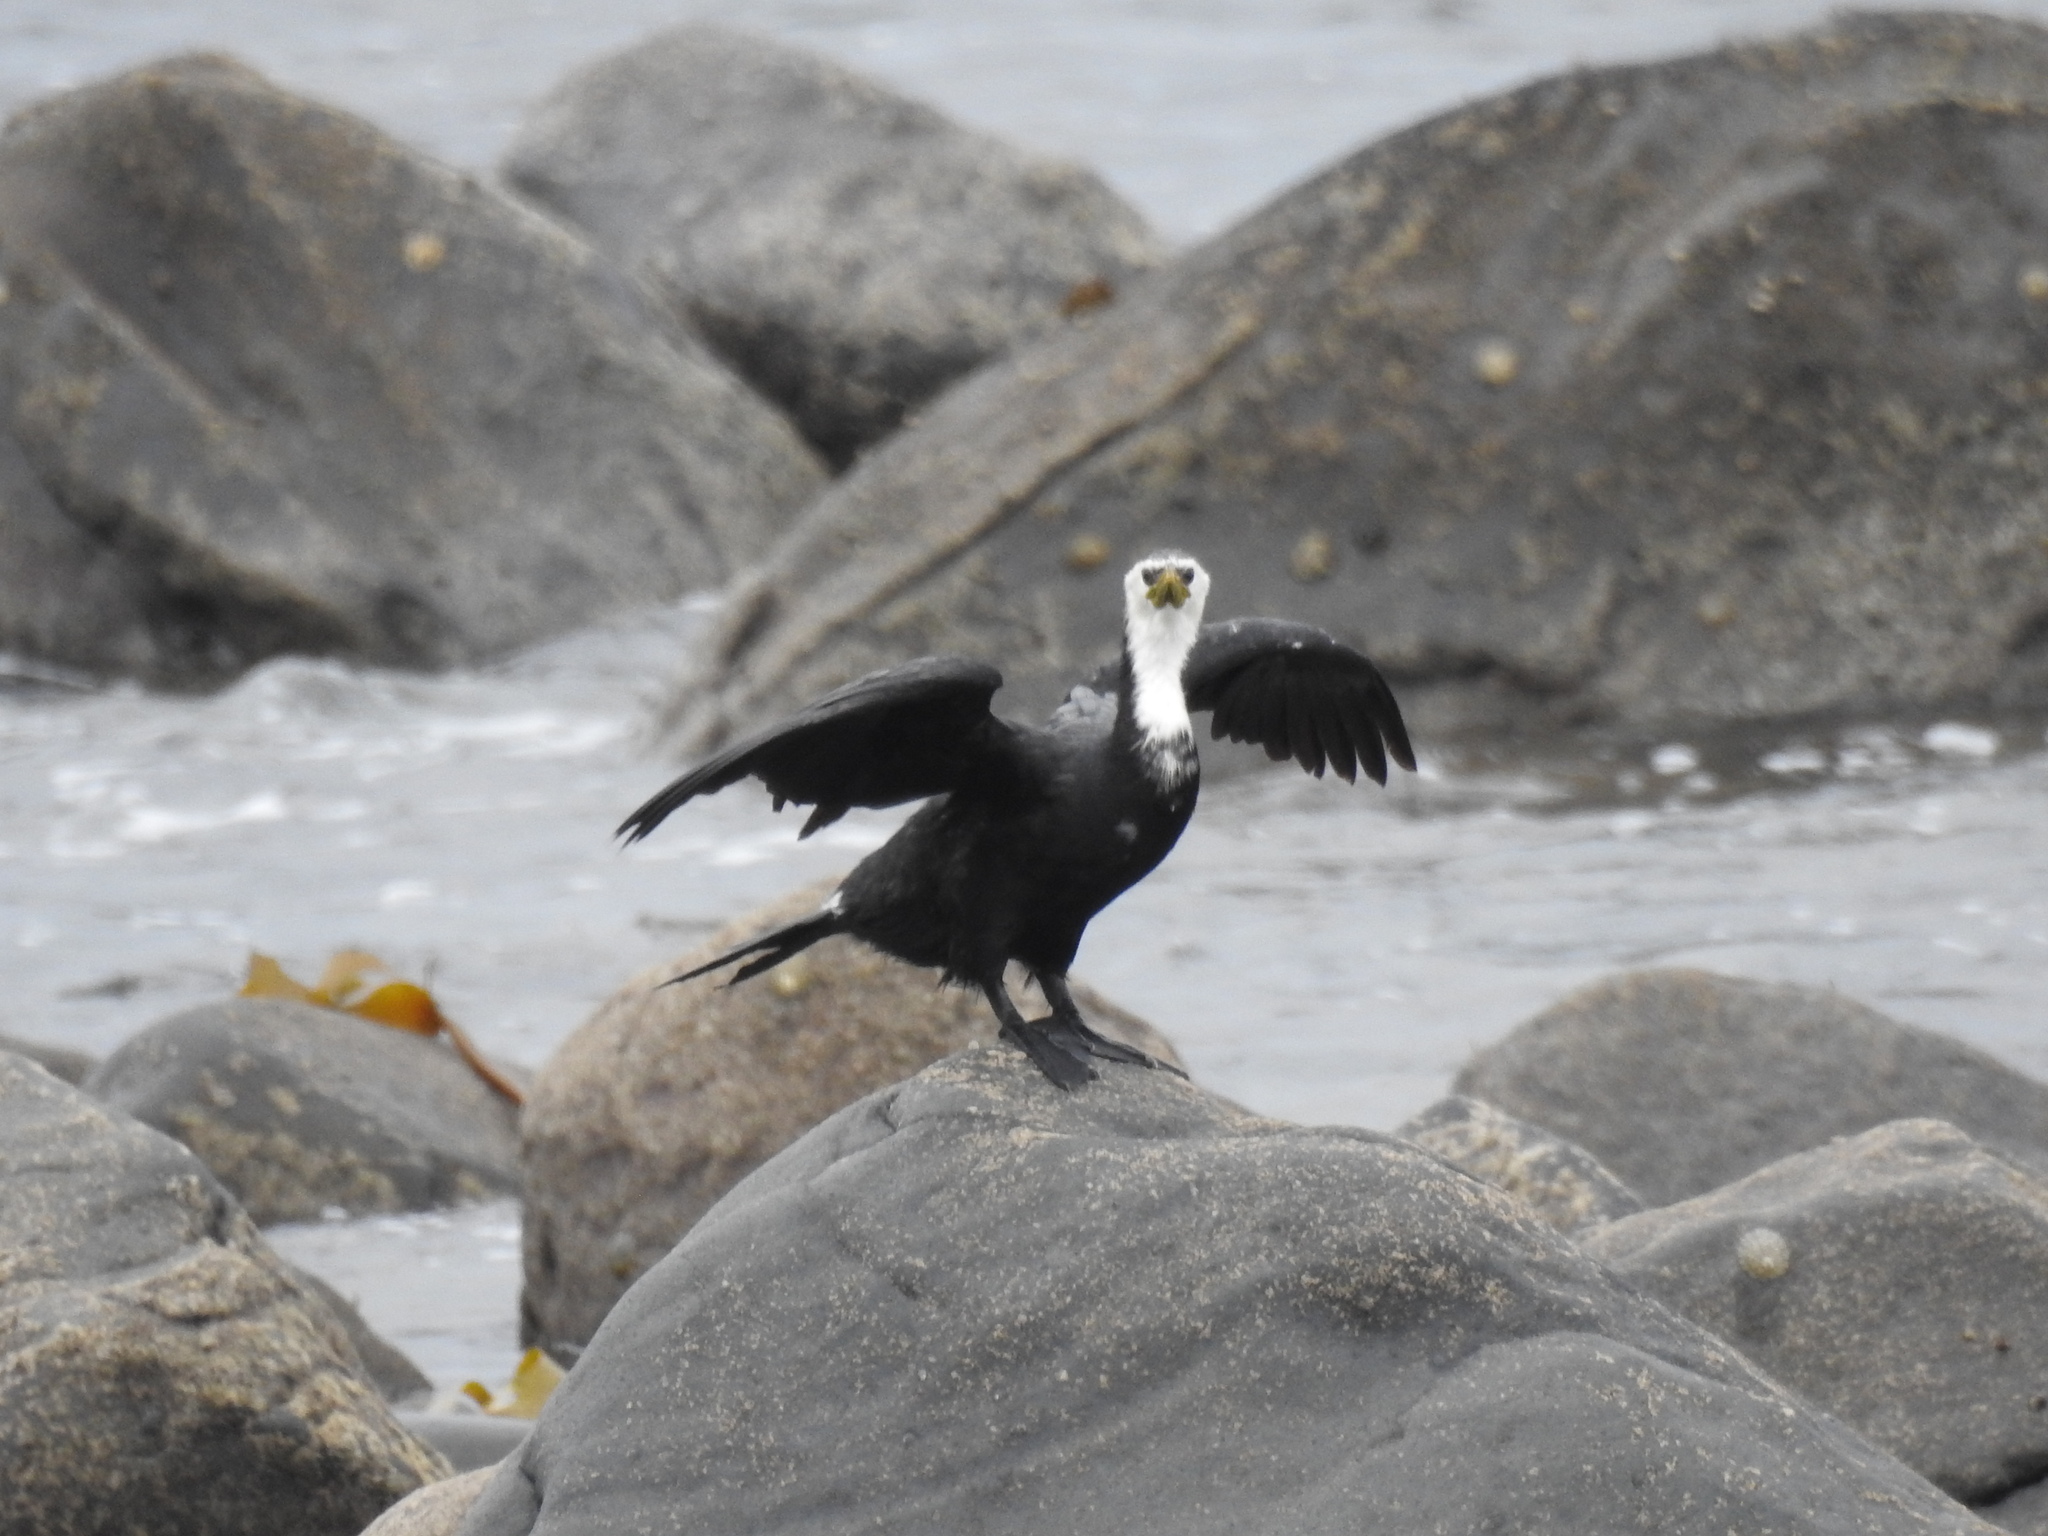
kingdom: Animalia
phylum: Chordata
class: Aves
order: Suliformes
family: Phalacrocoracidae
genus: Microcarbo
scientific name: Microcarbo melanoleucos
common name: Little pied cormorant
